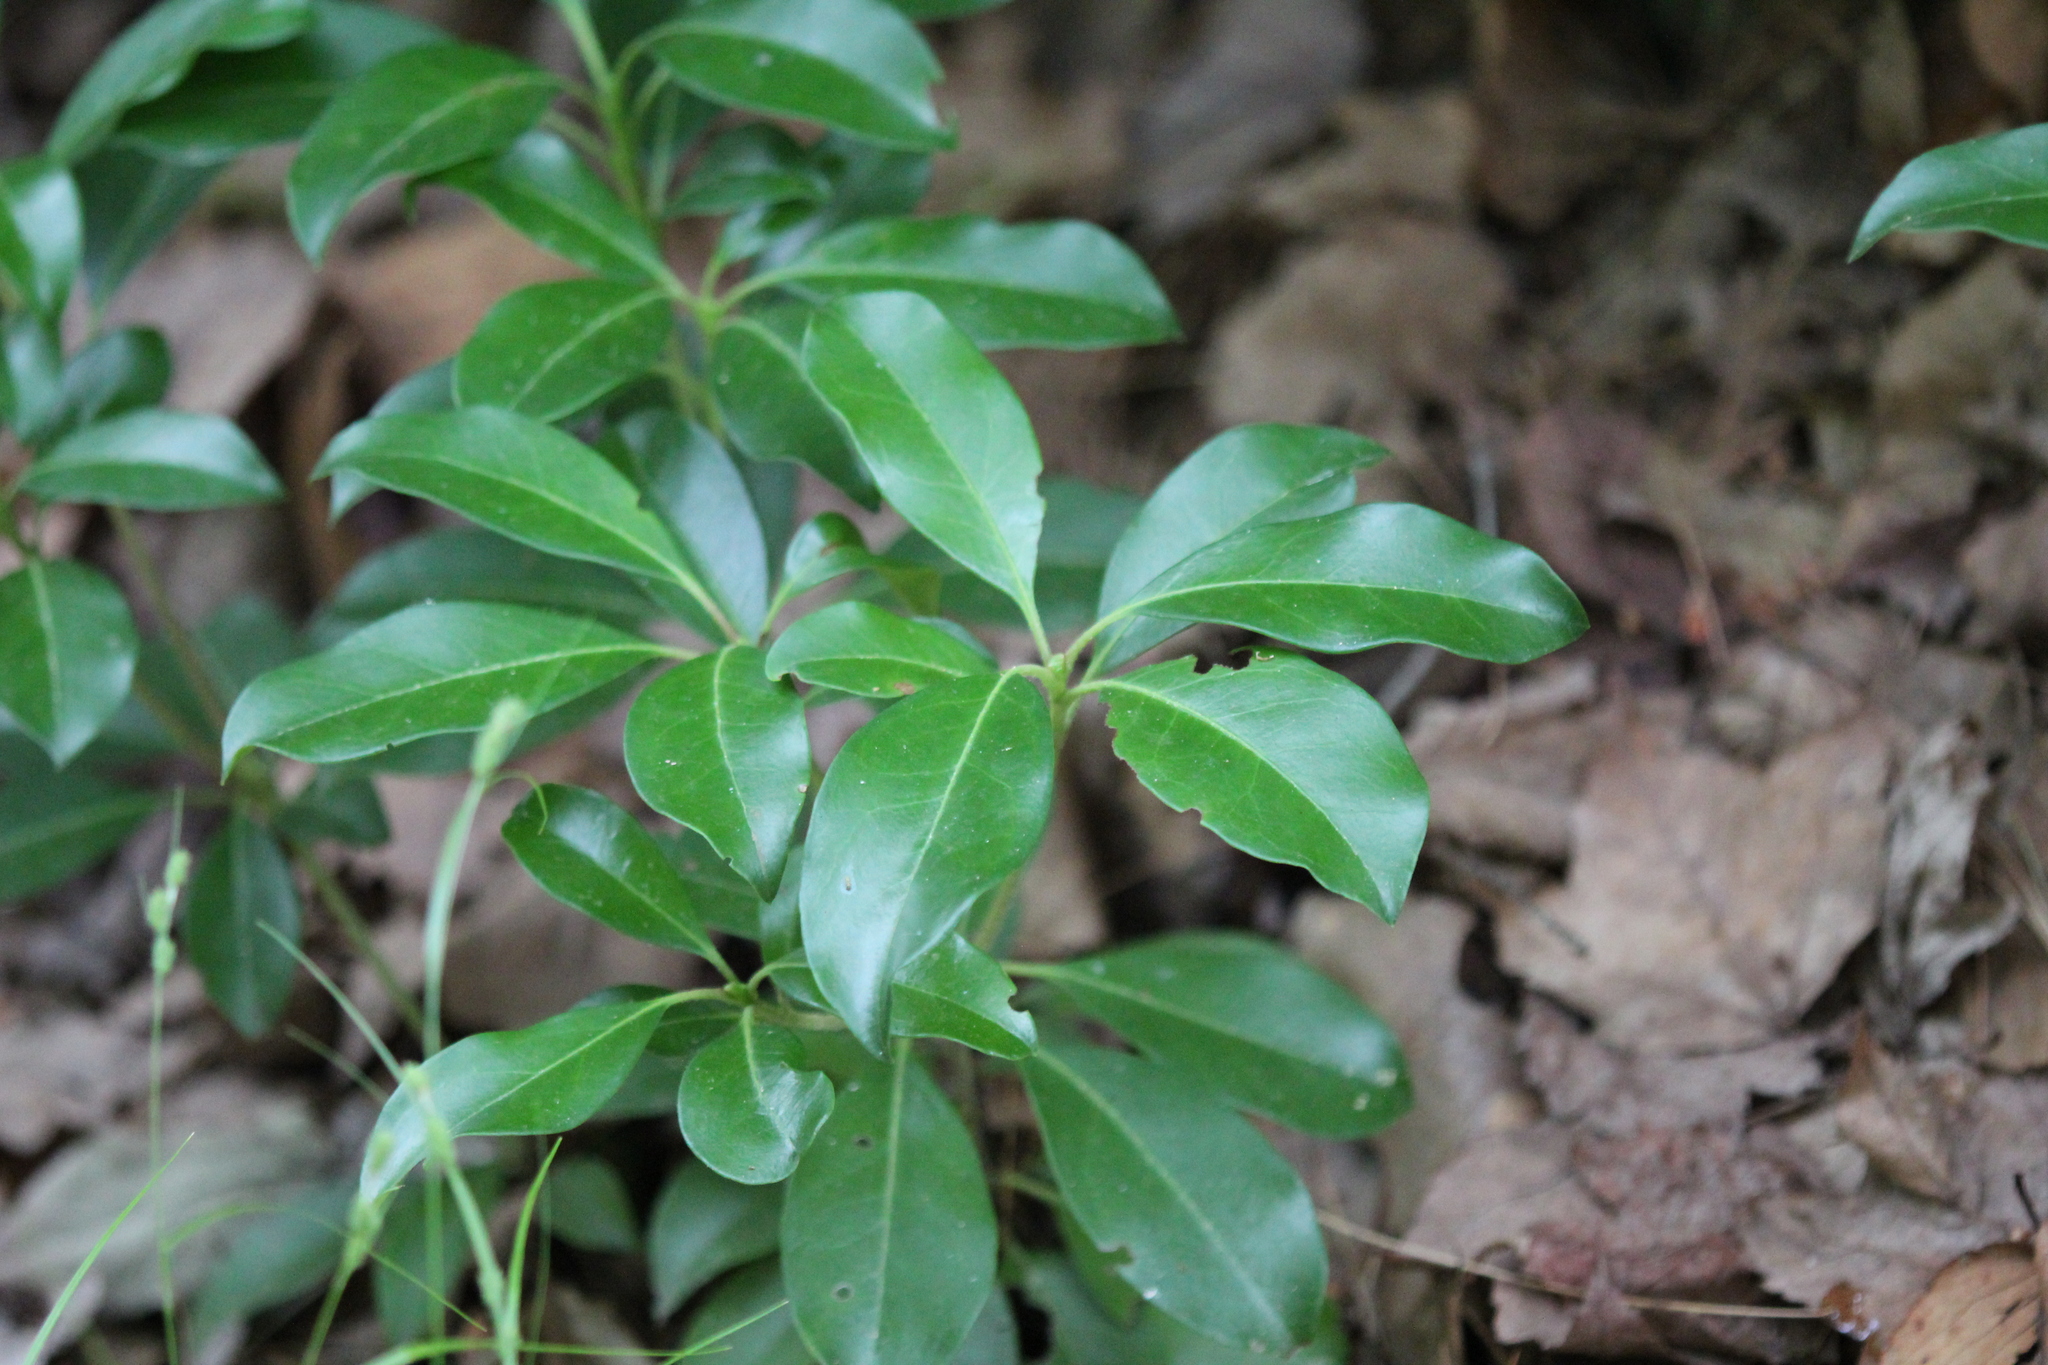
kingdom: Plantae
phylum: Tracheophyta
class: Magnoliopsida
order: Ericales
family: Ericaceae
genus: Kalmia
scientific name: Kalmia latifolia
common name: Mountain-laurel
